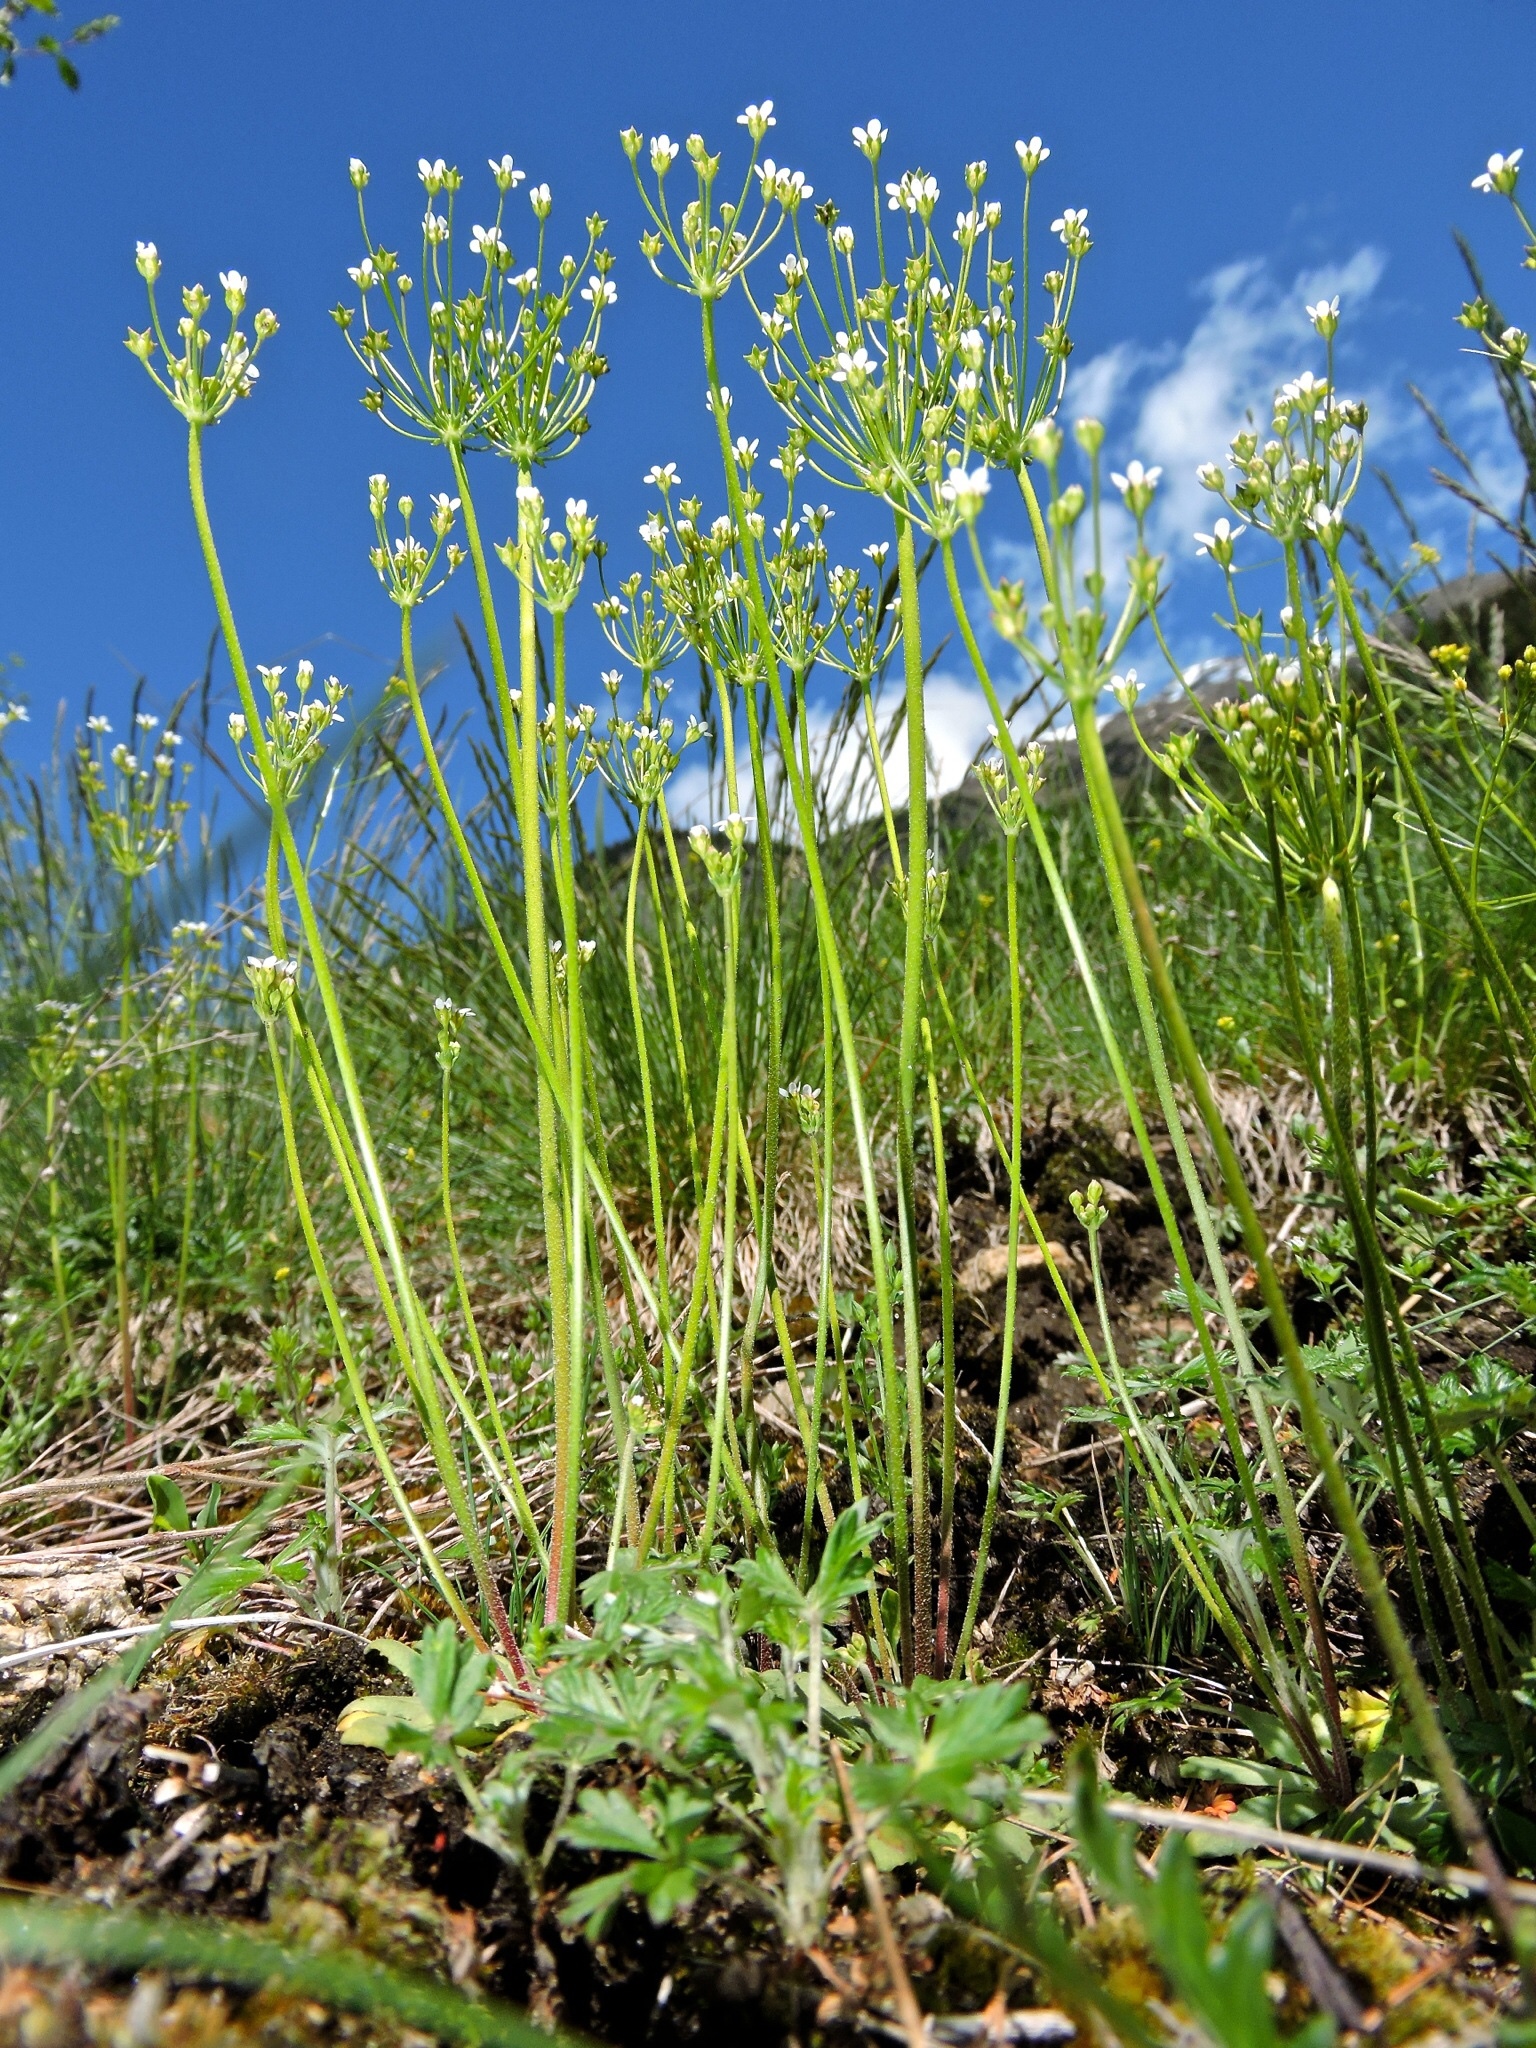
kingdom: Plantae
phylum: Tracheophyta
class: Magnoliopsida
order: Ericales
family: Primulaceae
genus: Androsace
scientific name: Androsace septentrionalis
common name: Hairy northern fairy-candelabra
